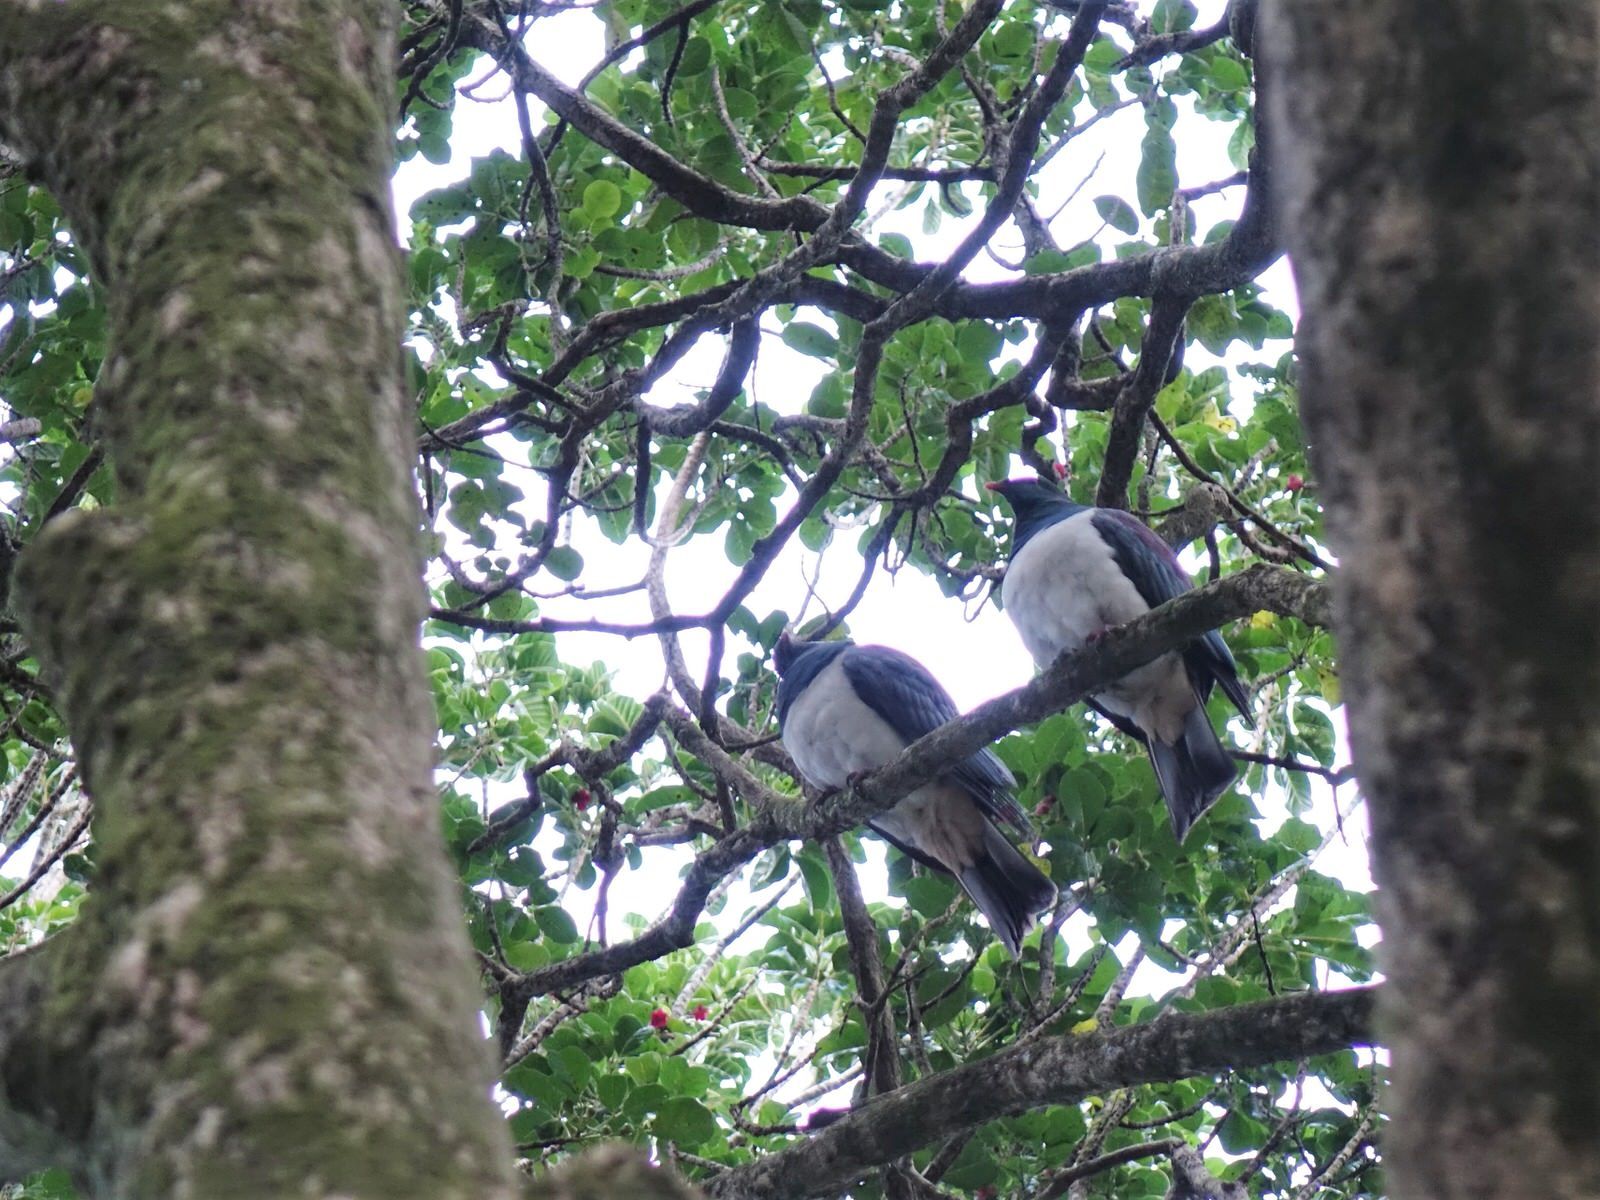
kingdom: Animalia
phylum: Chordata
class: Aves
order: Columbiformes
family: Columbidae
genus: Hemiphaga
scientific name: Hemiphaga novaeseelandiae
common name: New zealand pigeon
